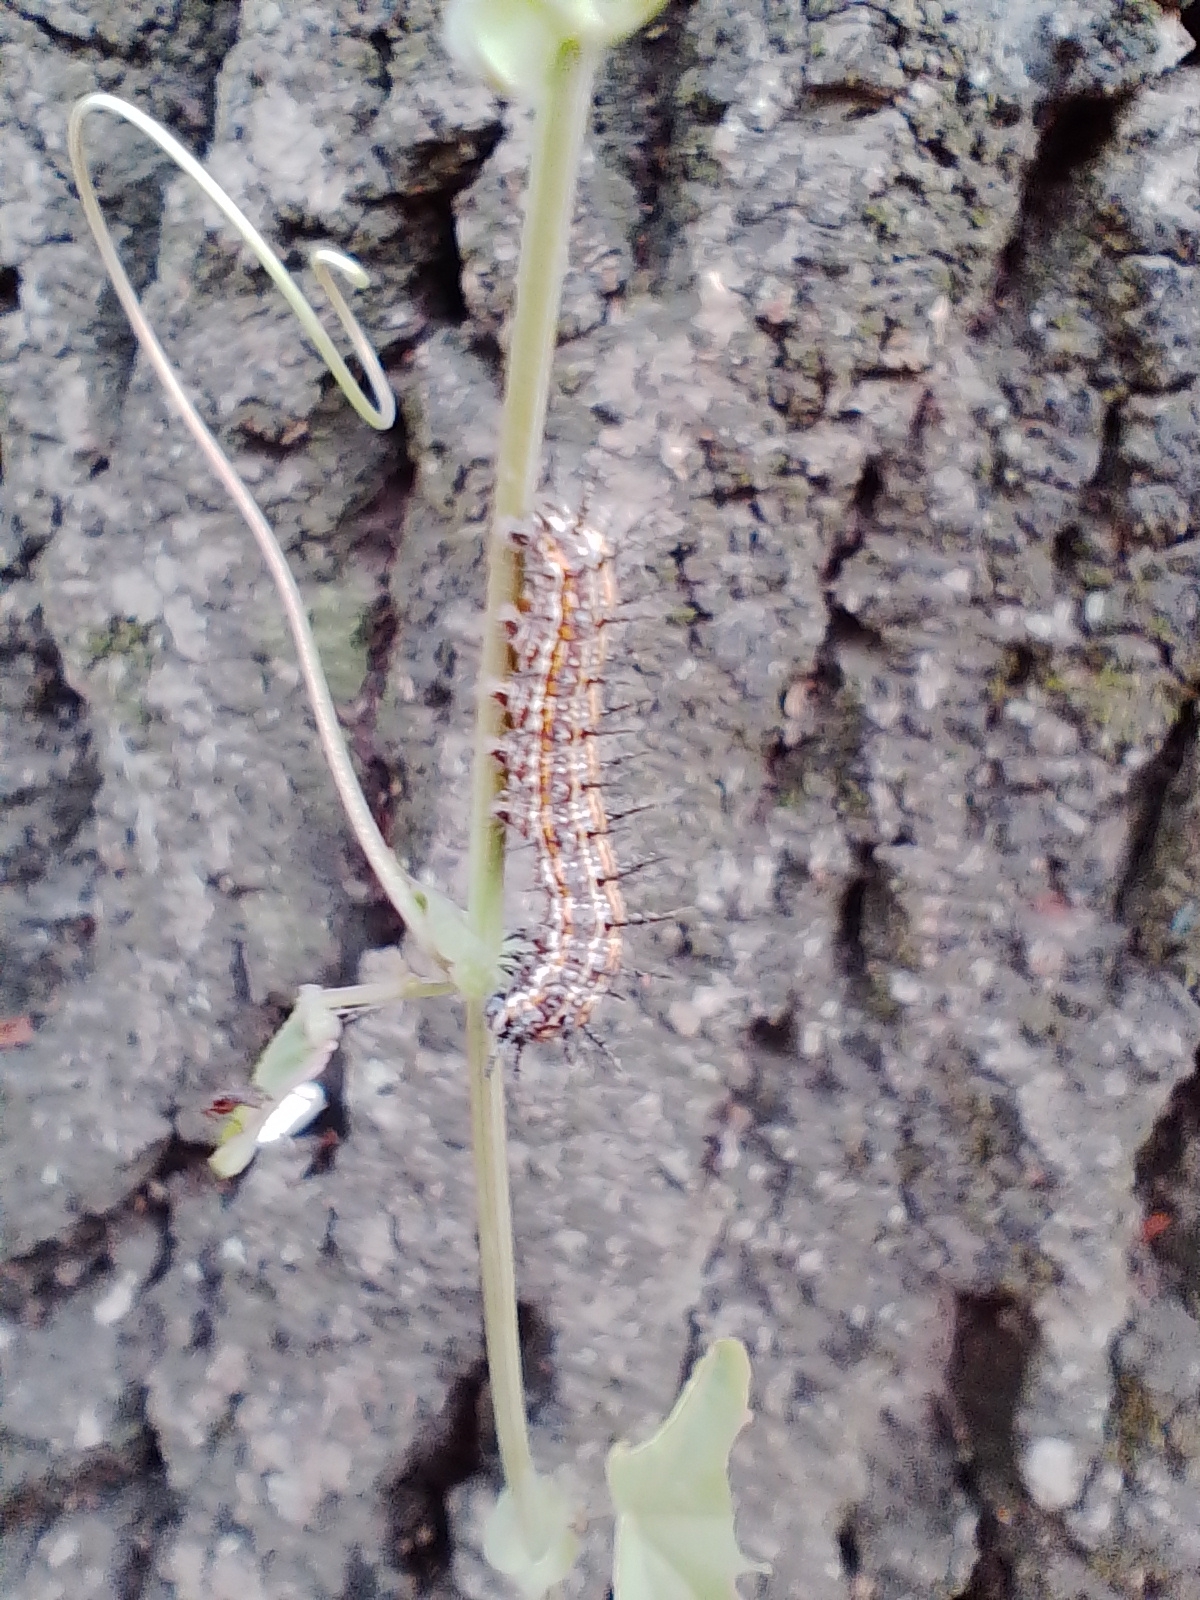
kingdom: Plantae
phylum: Tracheophyta
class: Magnoliopsida
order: Malpighiales
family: Passifloraceae
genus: Passiflora
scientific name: Passiflora caerulea
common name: Blue passionflower
